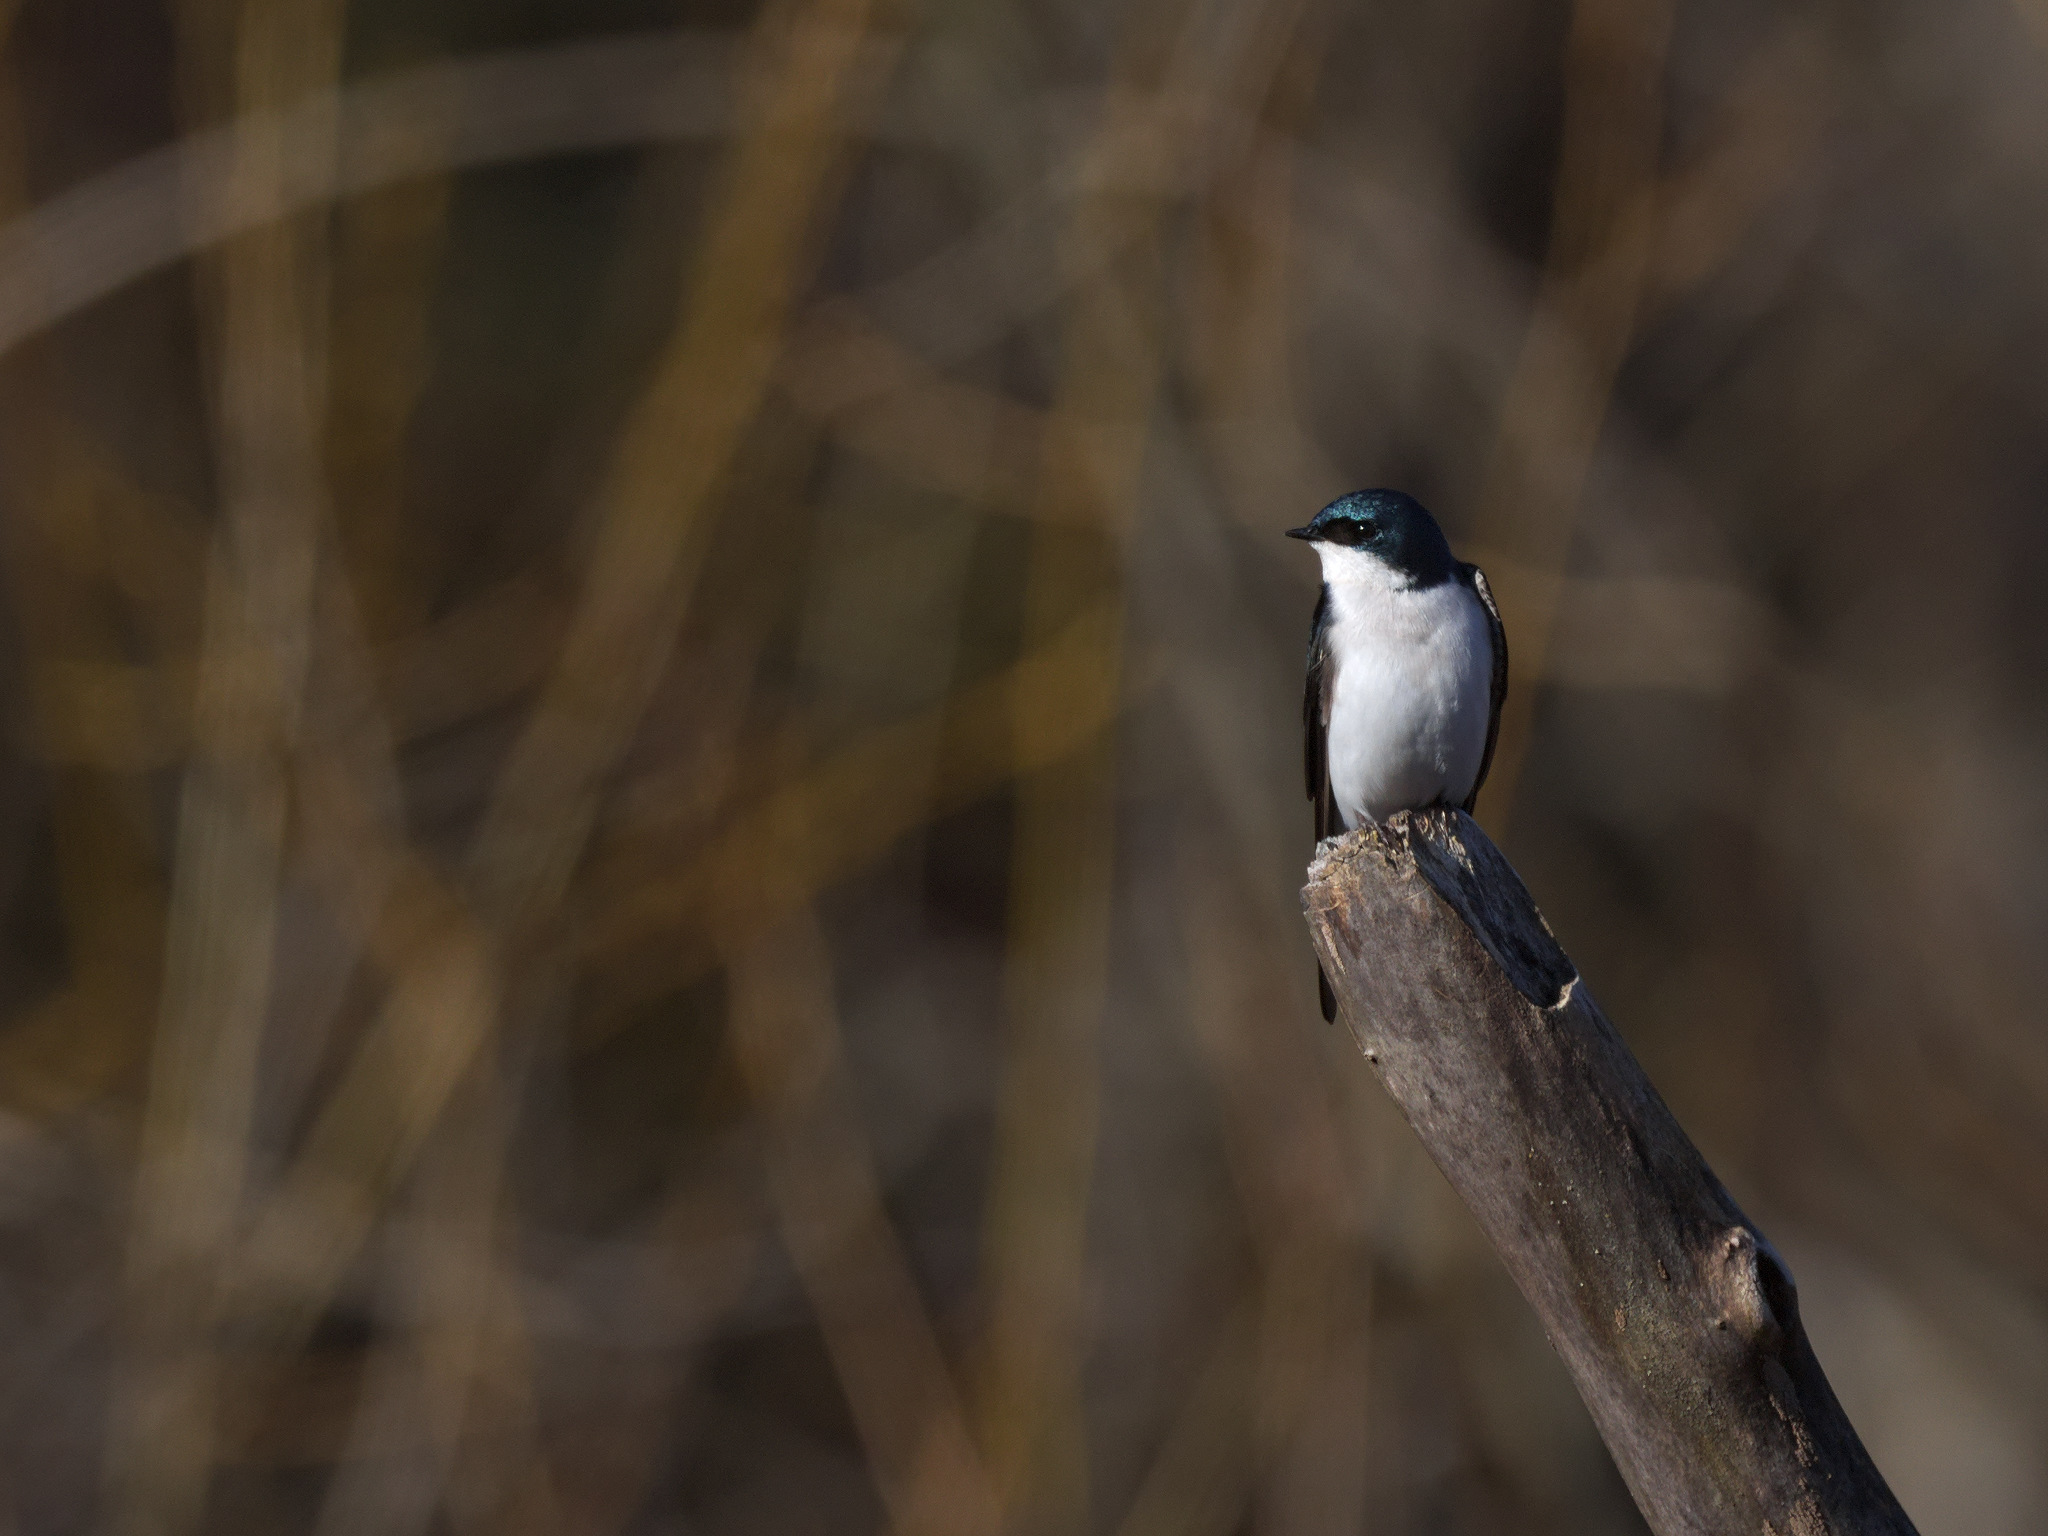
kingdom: Animalia
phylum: Chordata
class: Aves
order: Passeriformes
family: Hirundinidae
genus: Tachycineta
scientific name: Tachycineta bicolor
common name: Tree swallow
